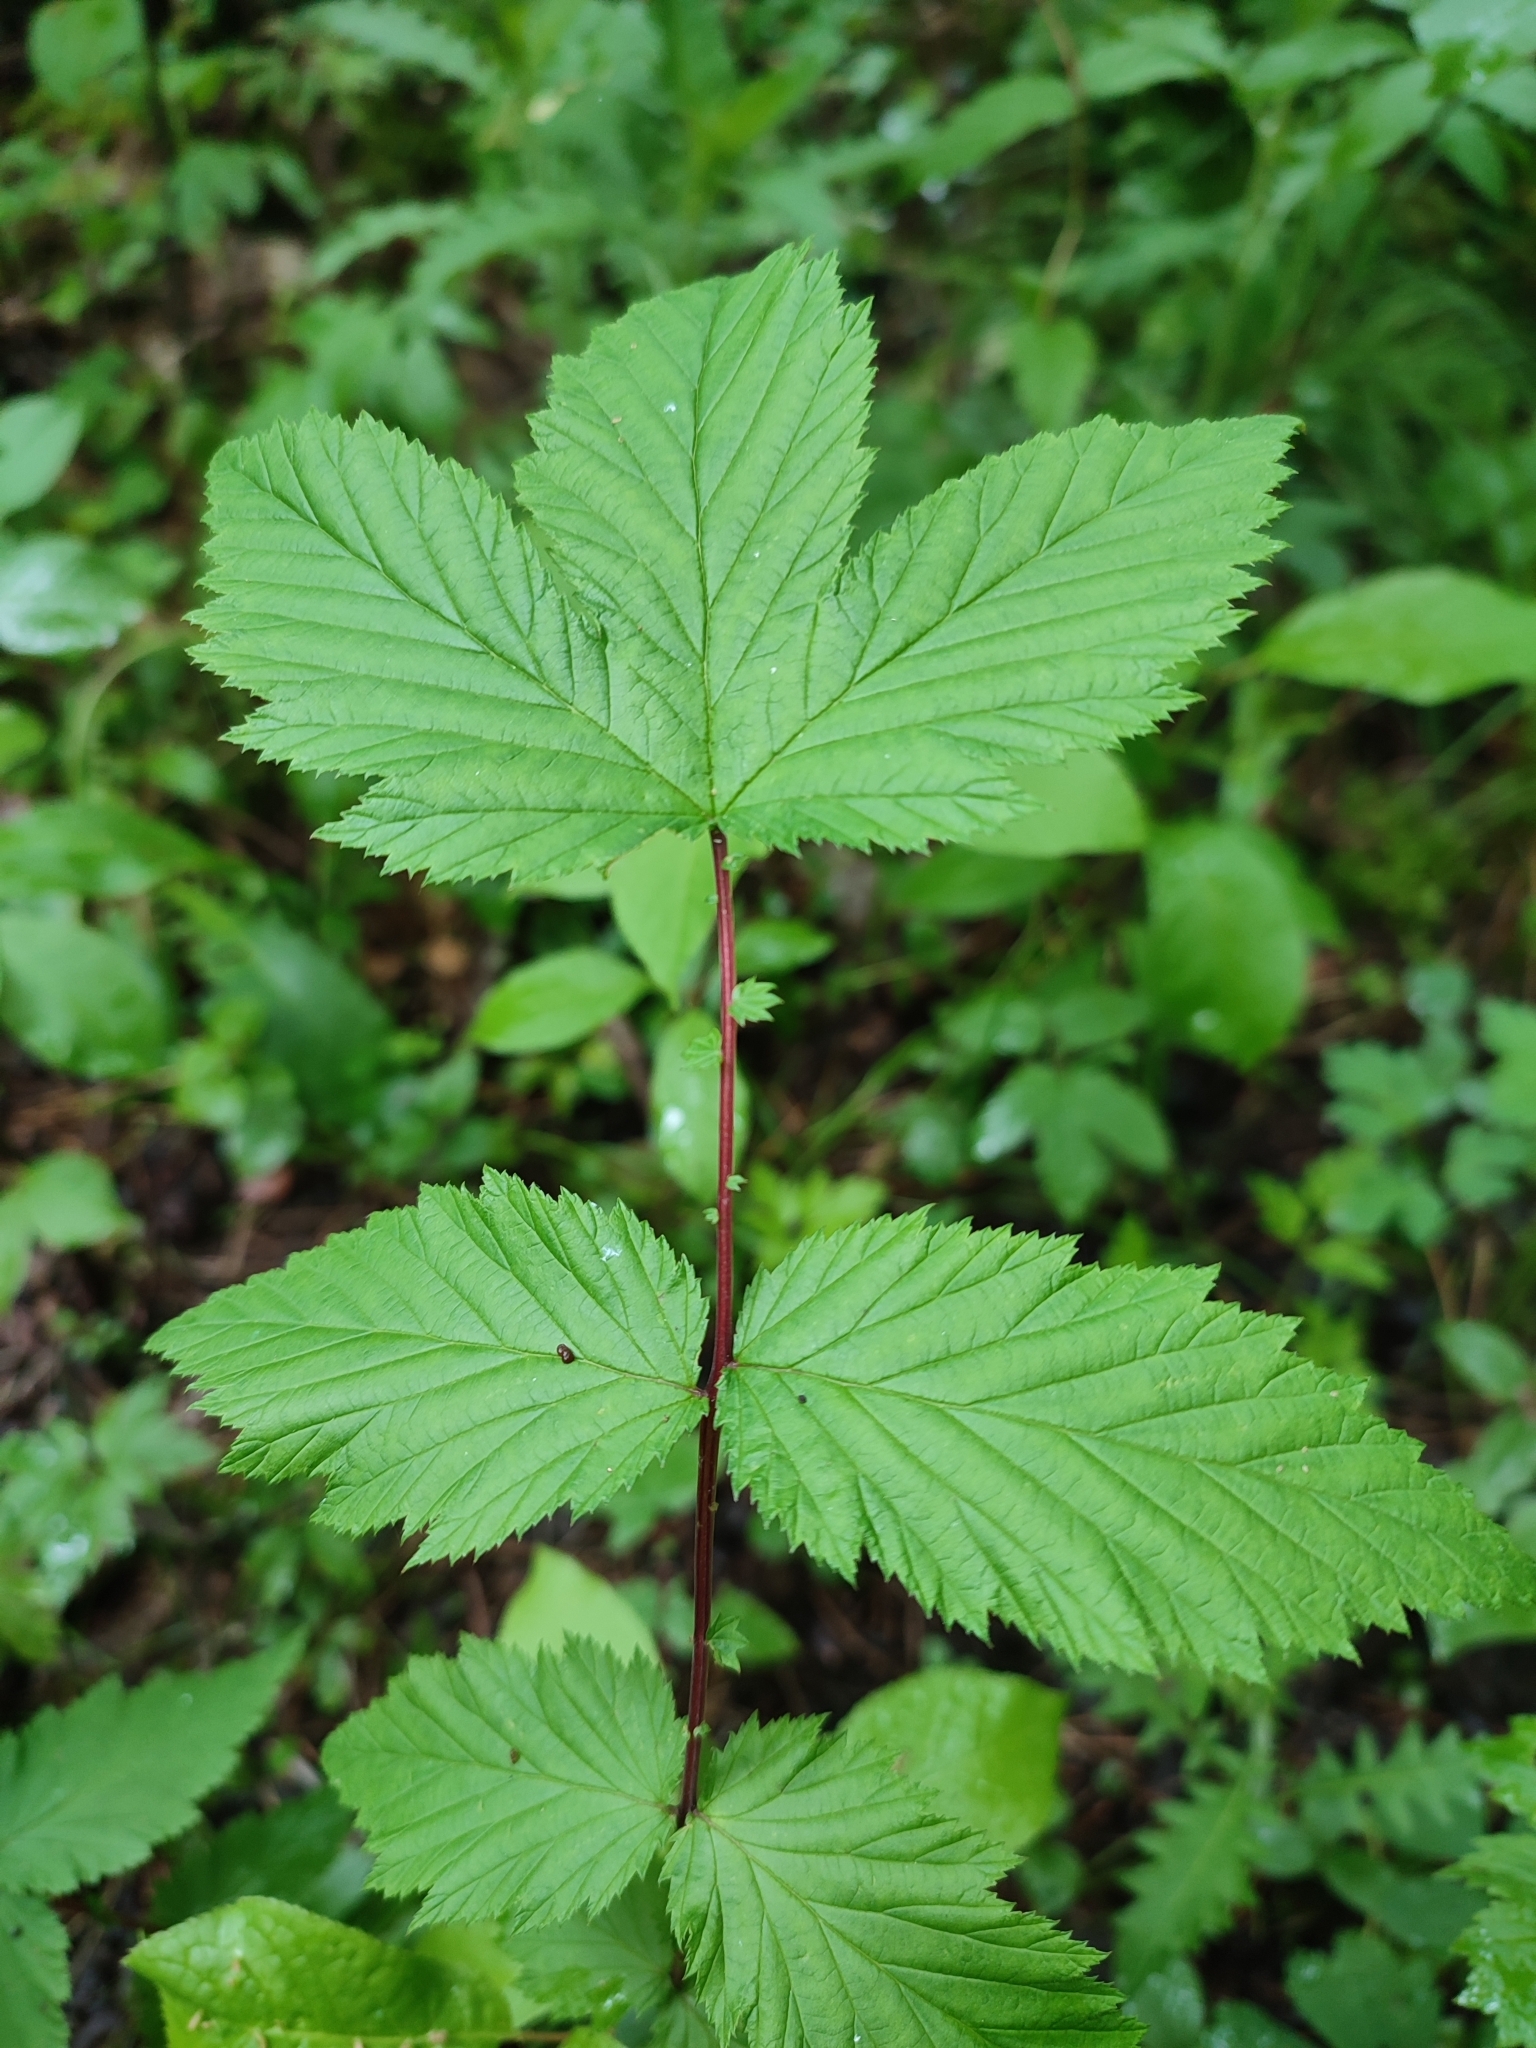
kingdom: Plantae
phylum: Tracheophyta
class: Magnoliopsida
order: Rosales
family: Rosaceae
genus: Filipendula
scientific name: Filipendula ulmaria
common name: Meadowsweet
